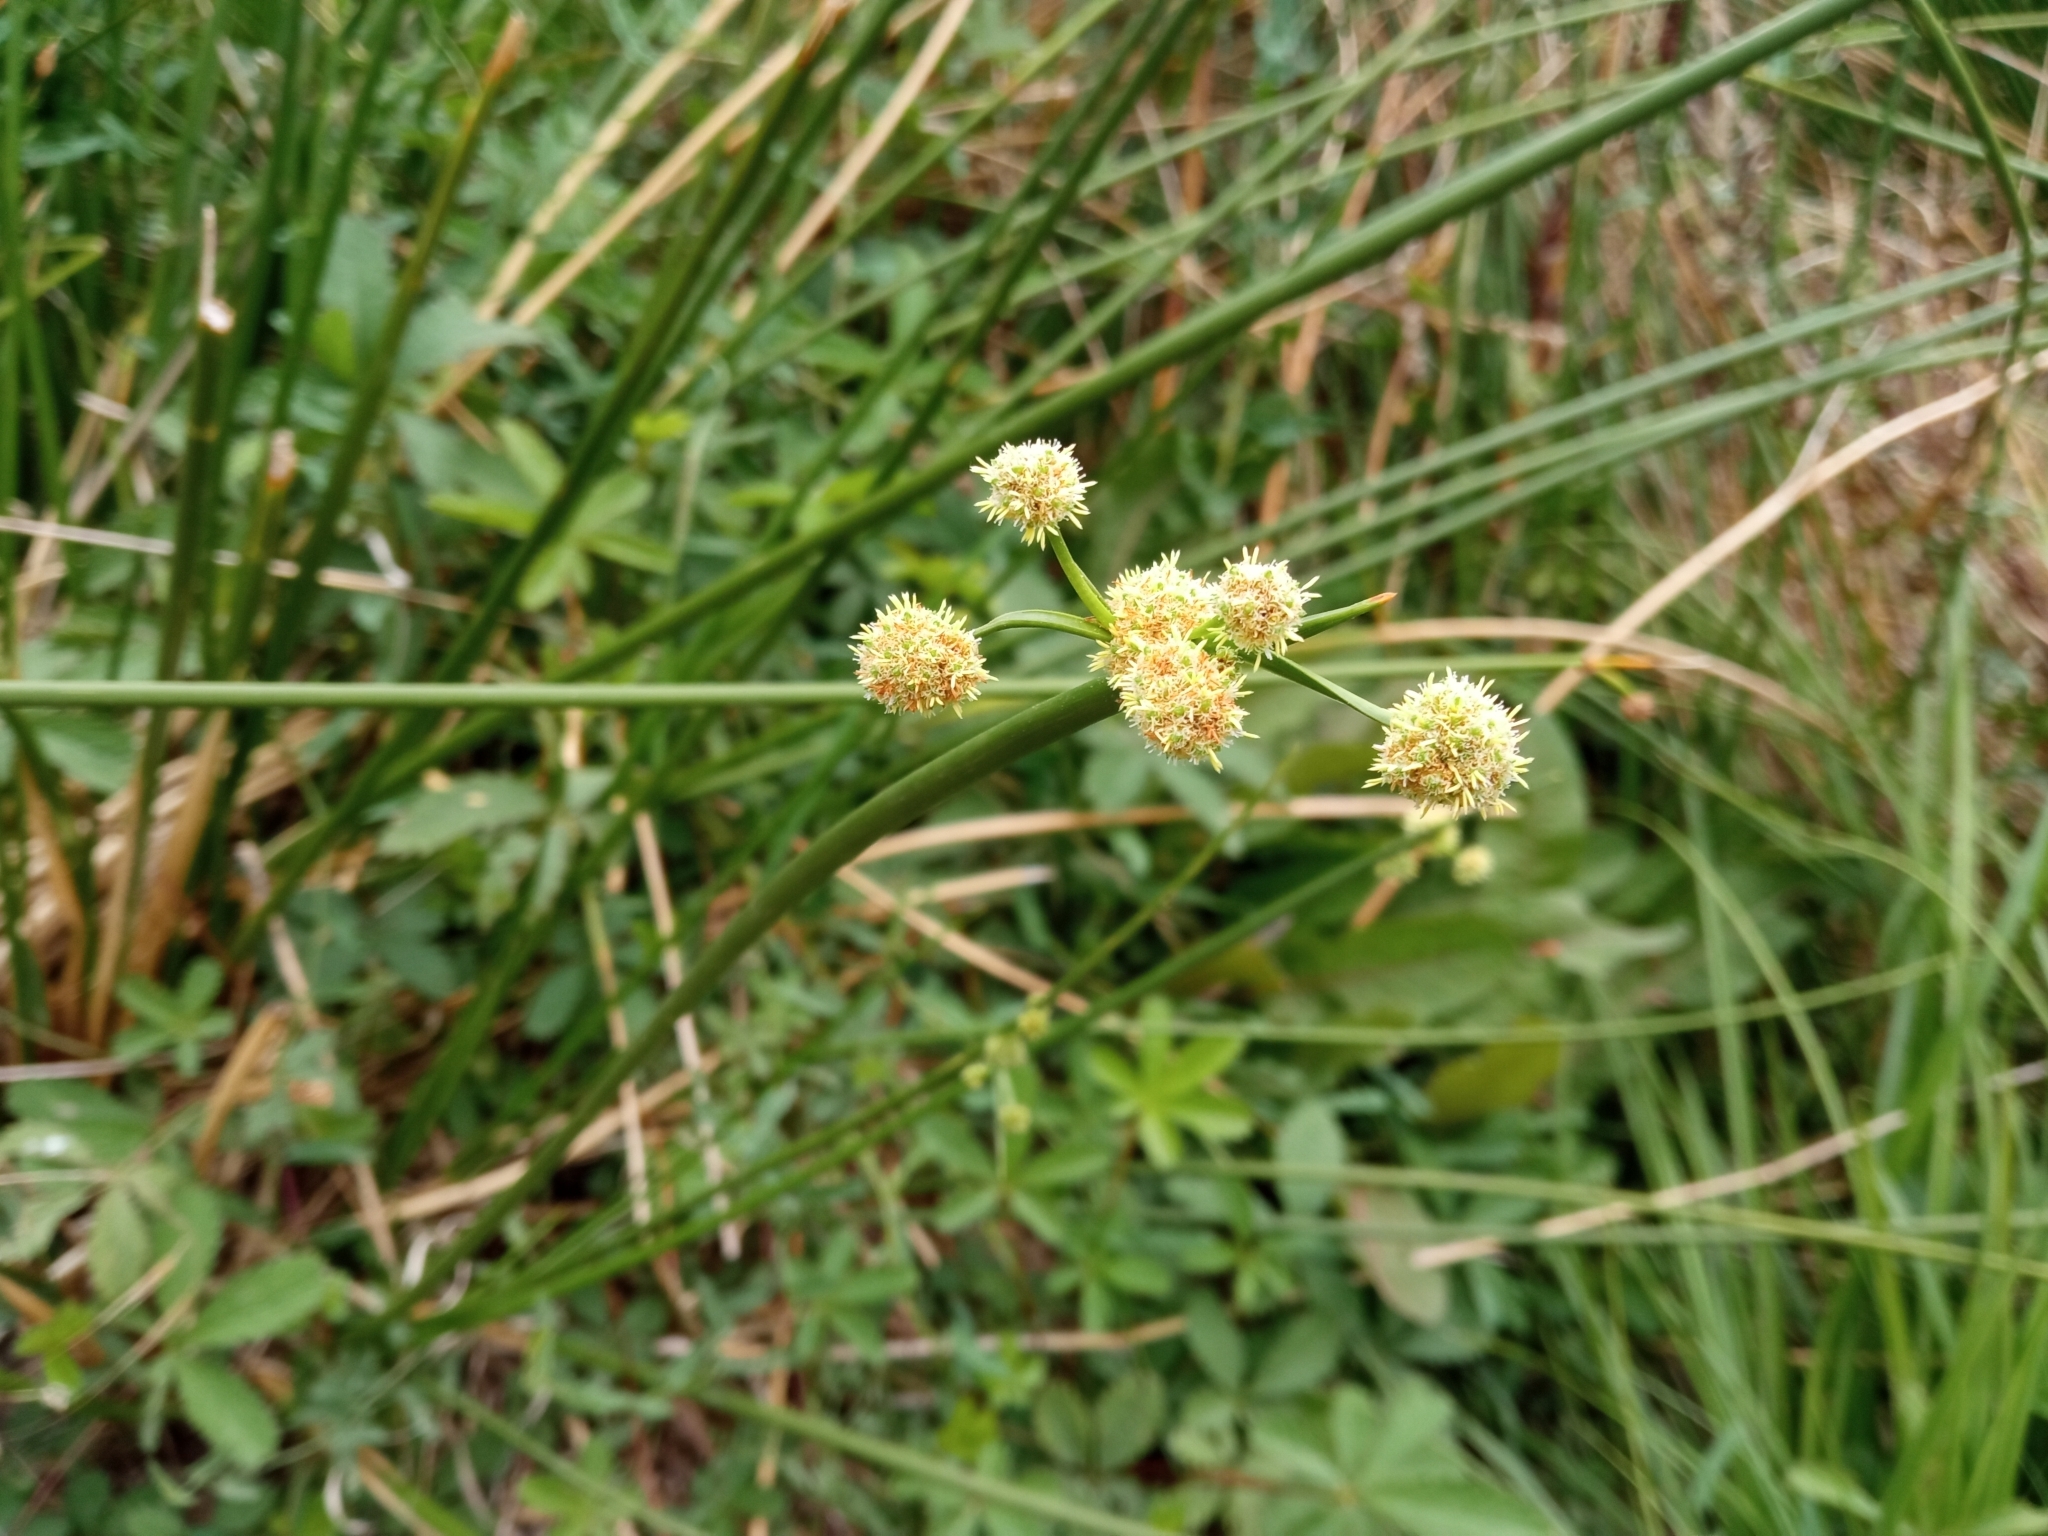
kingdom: Plantae
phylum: Tracheophyta
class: Liliopsida
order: Poales
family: Cyperaceae
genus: Scirpoides
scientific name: Scirpoides holoschoenus
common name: Round-headed club-rush
